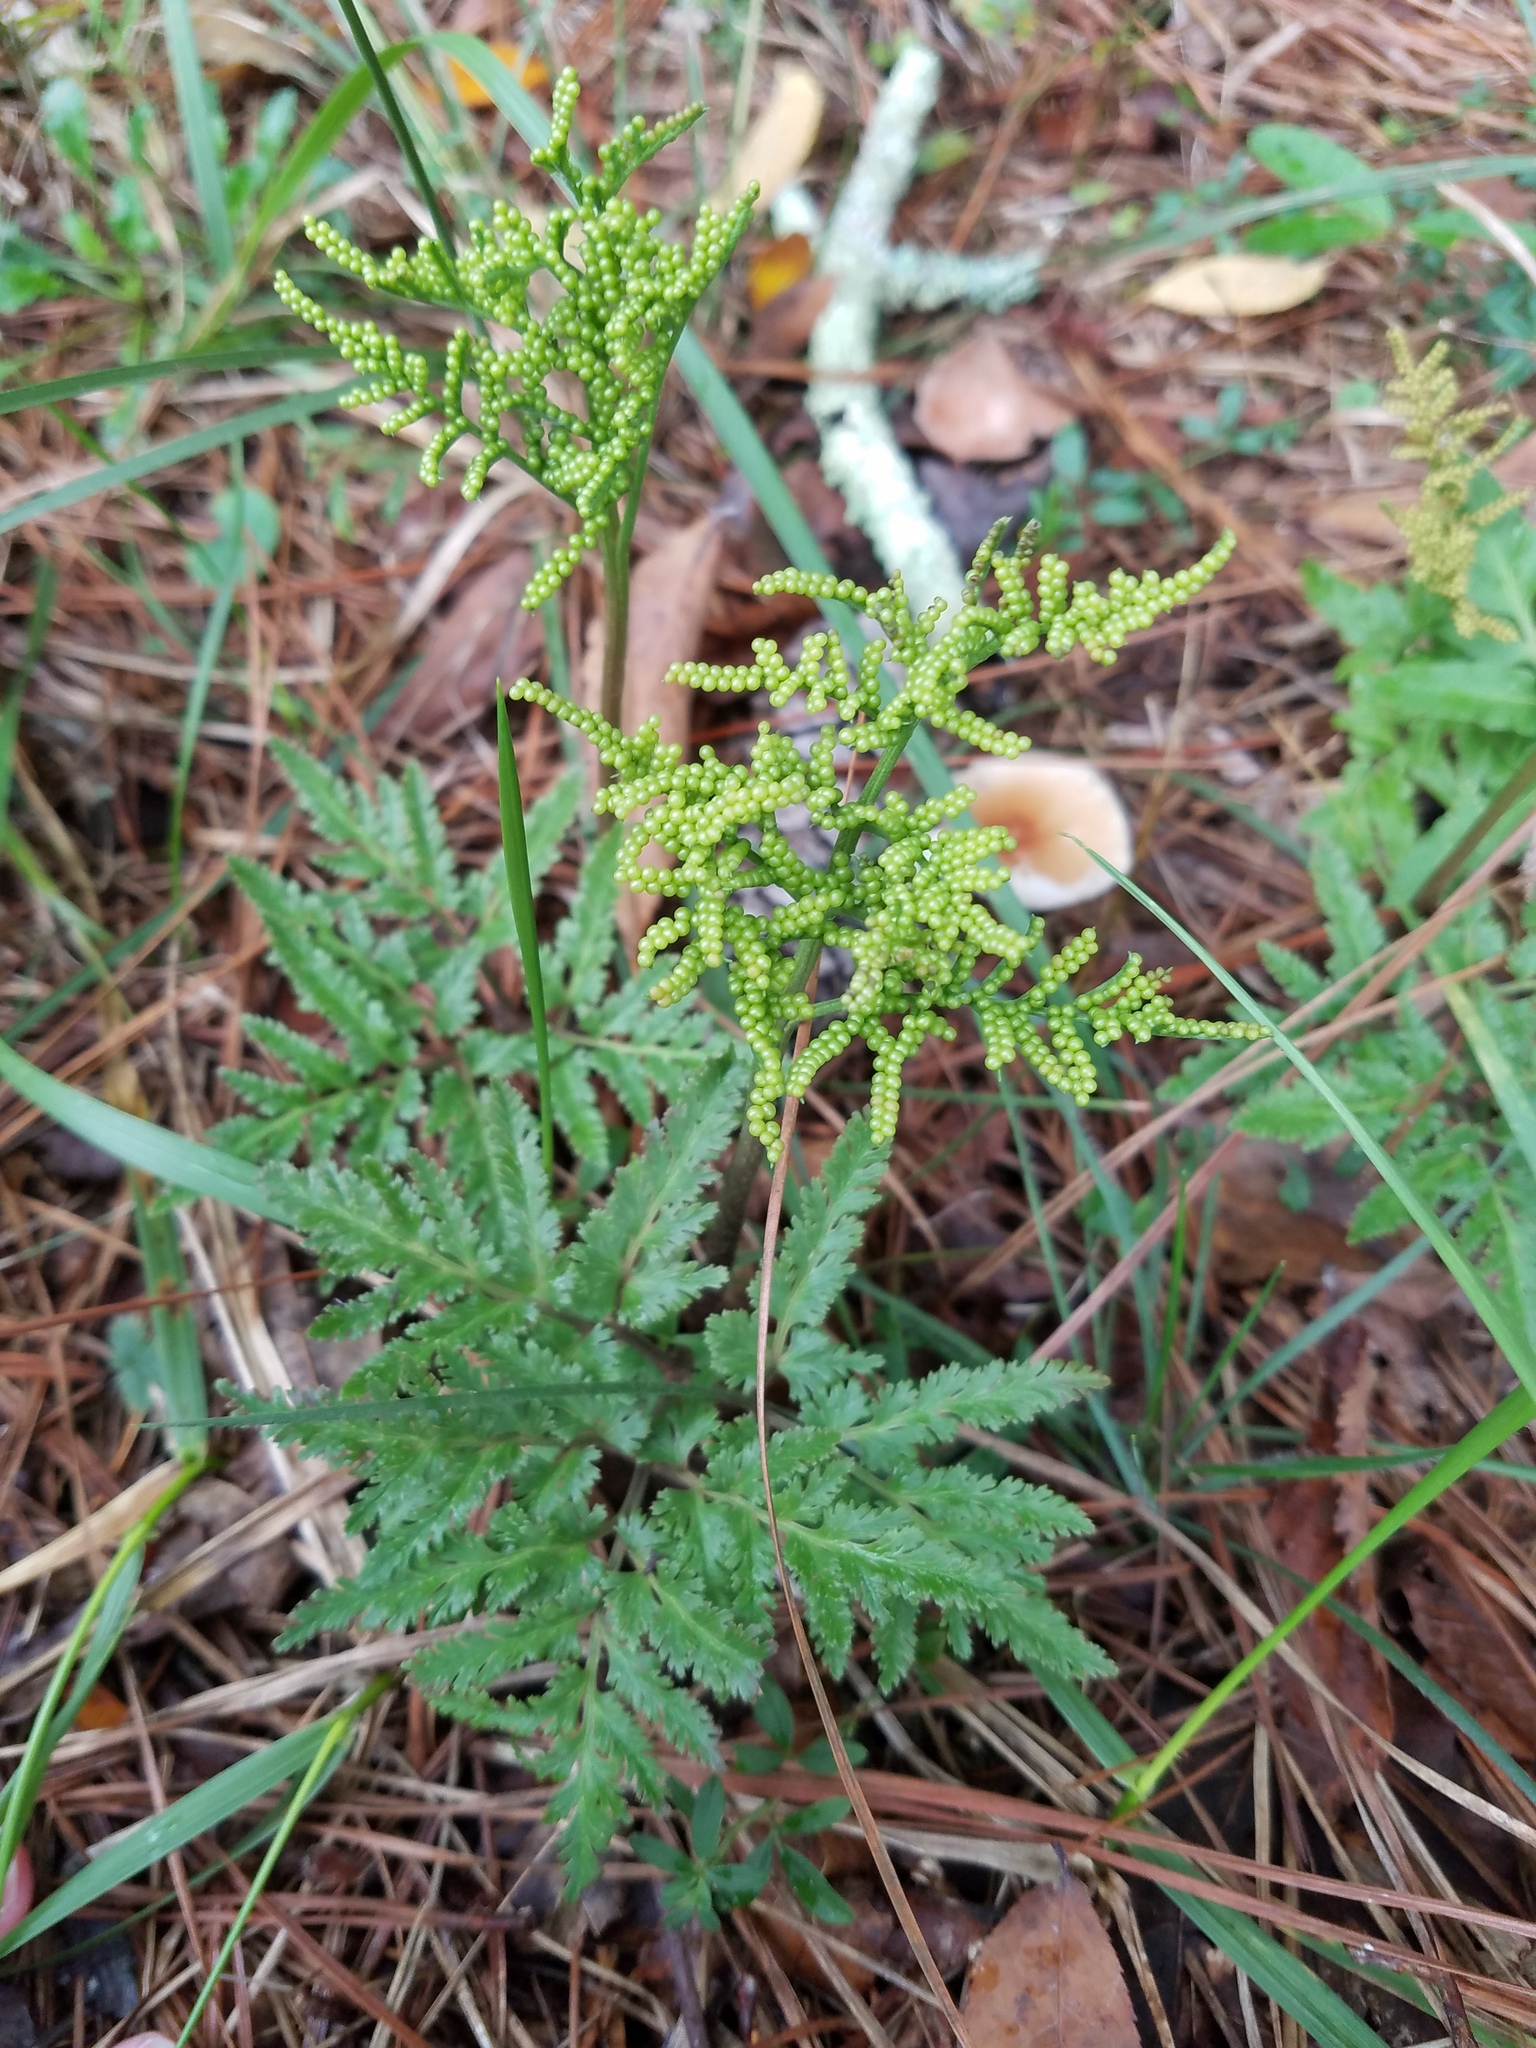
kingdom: Plantae
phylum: Tracheophyta
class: Polypodiopsida
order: Ophioglossales
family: Ophioglossaceae
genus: Sceptridium
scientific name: Sceptridium dissectum
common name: Cut-leaved grapefern
